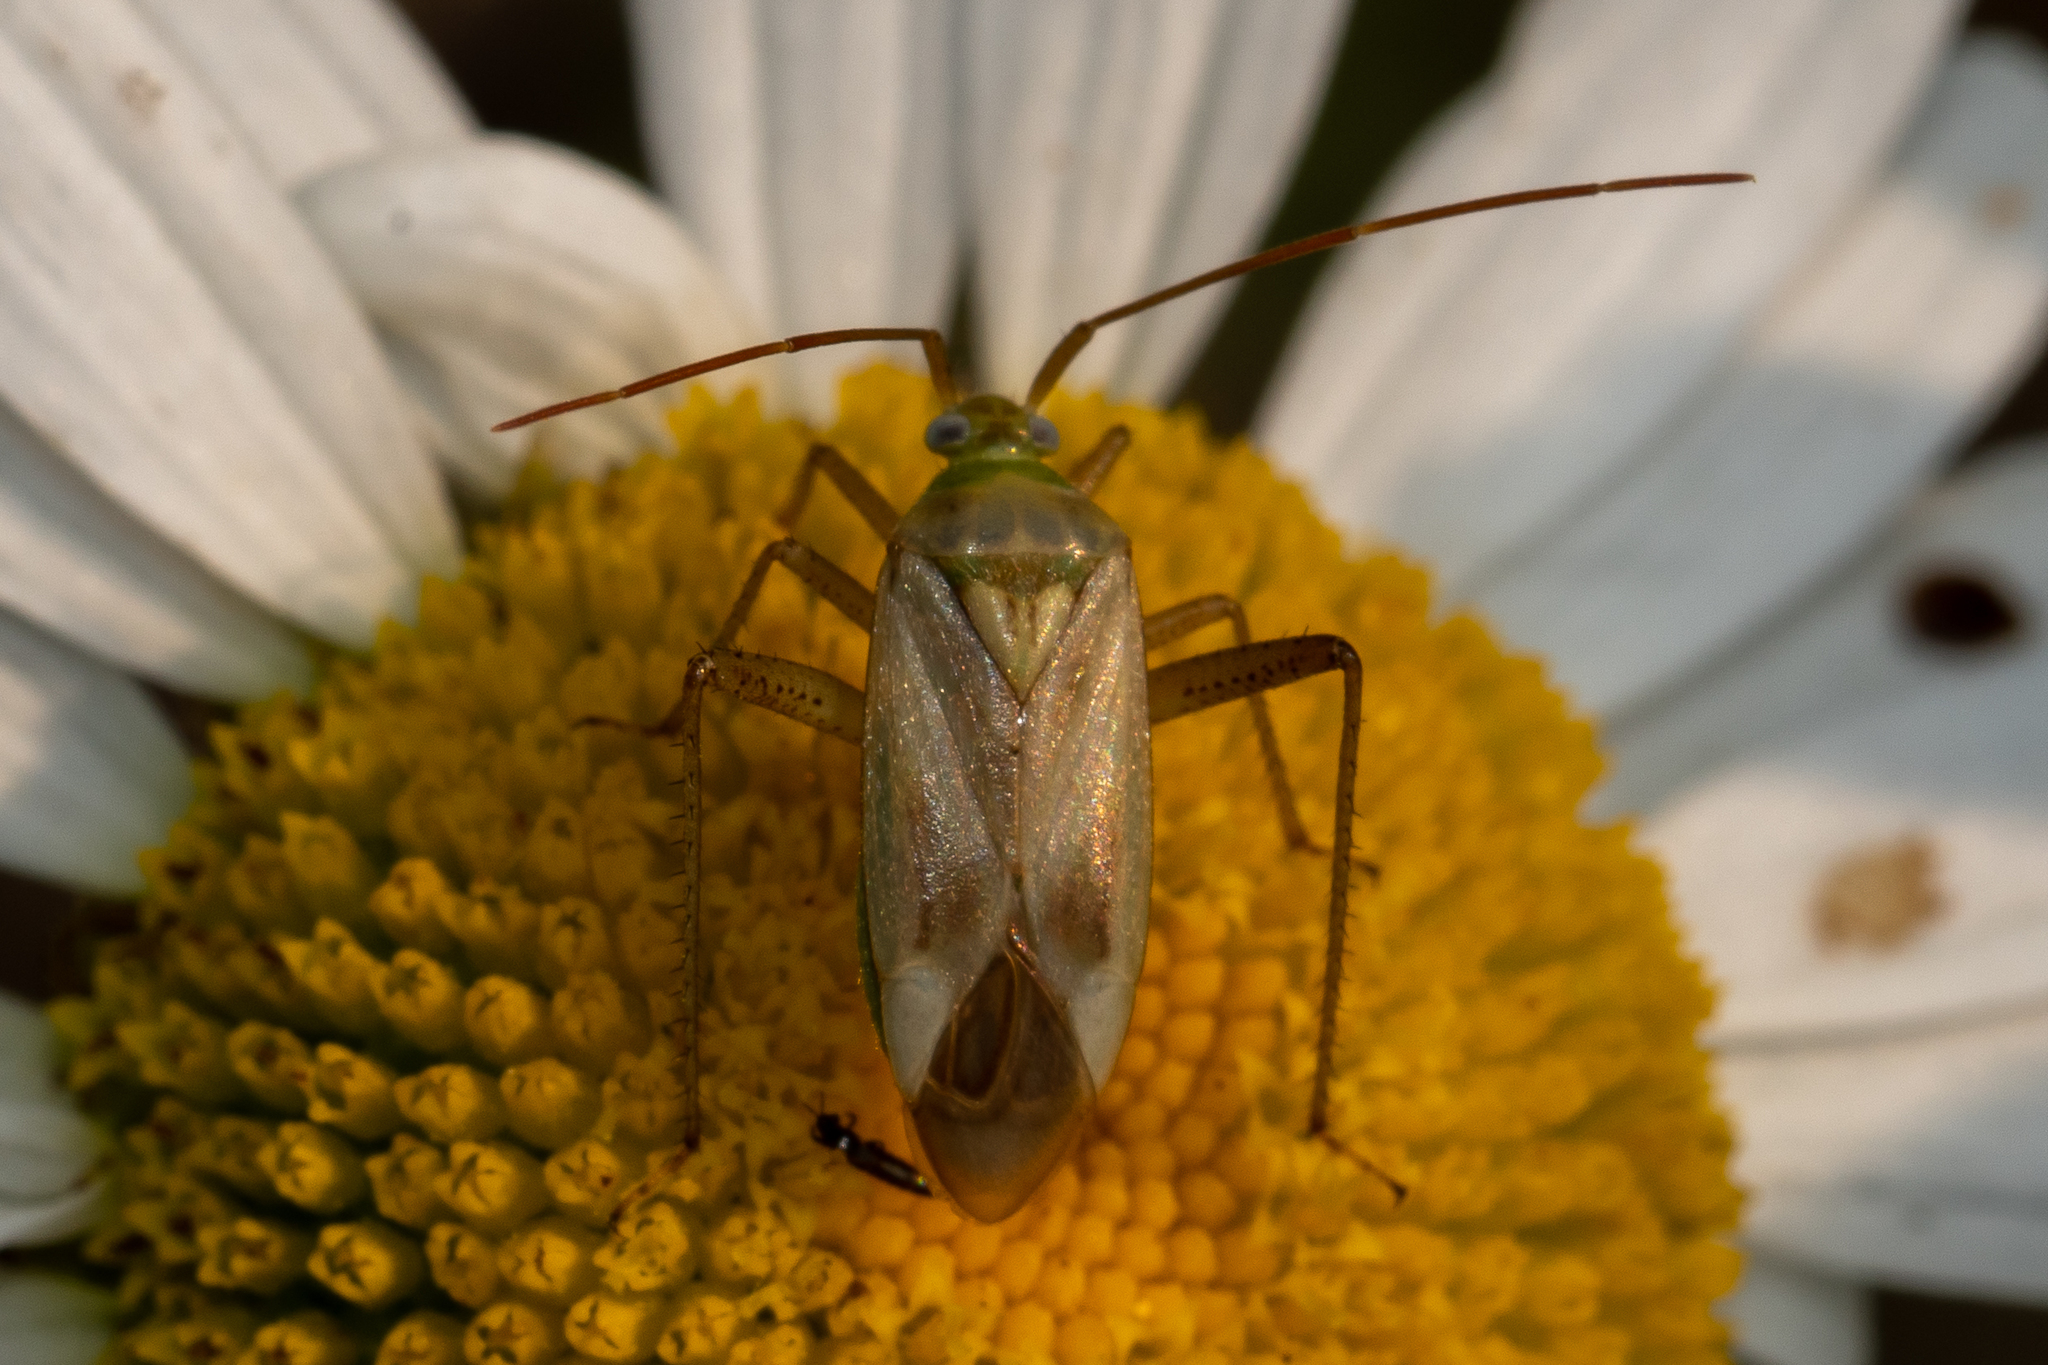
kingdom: Animalia
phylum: Arthropoda
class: Insecta
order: Hemiptera
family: Miridae
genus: Adelphocoris
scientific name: Adelphocoris lineolatus
